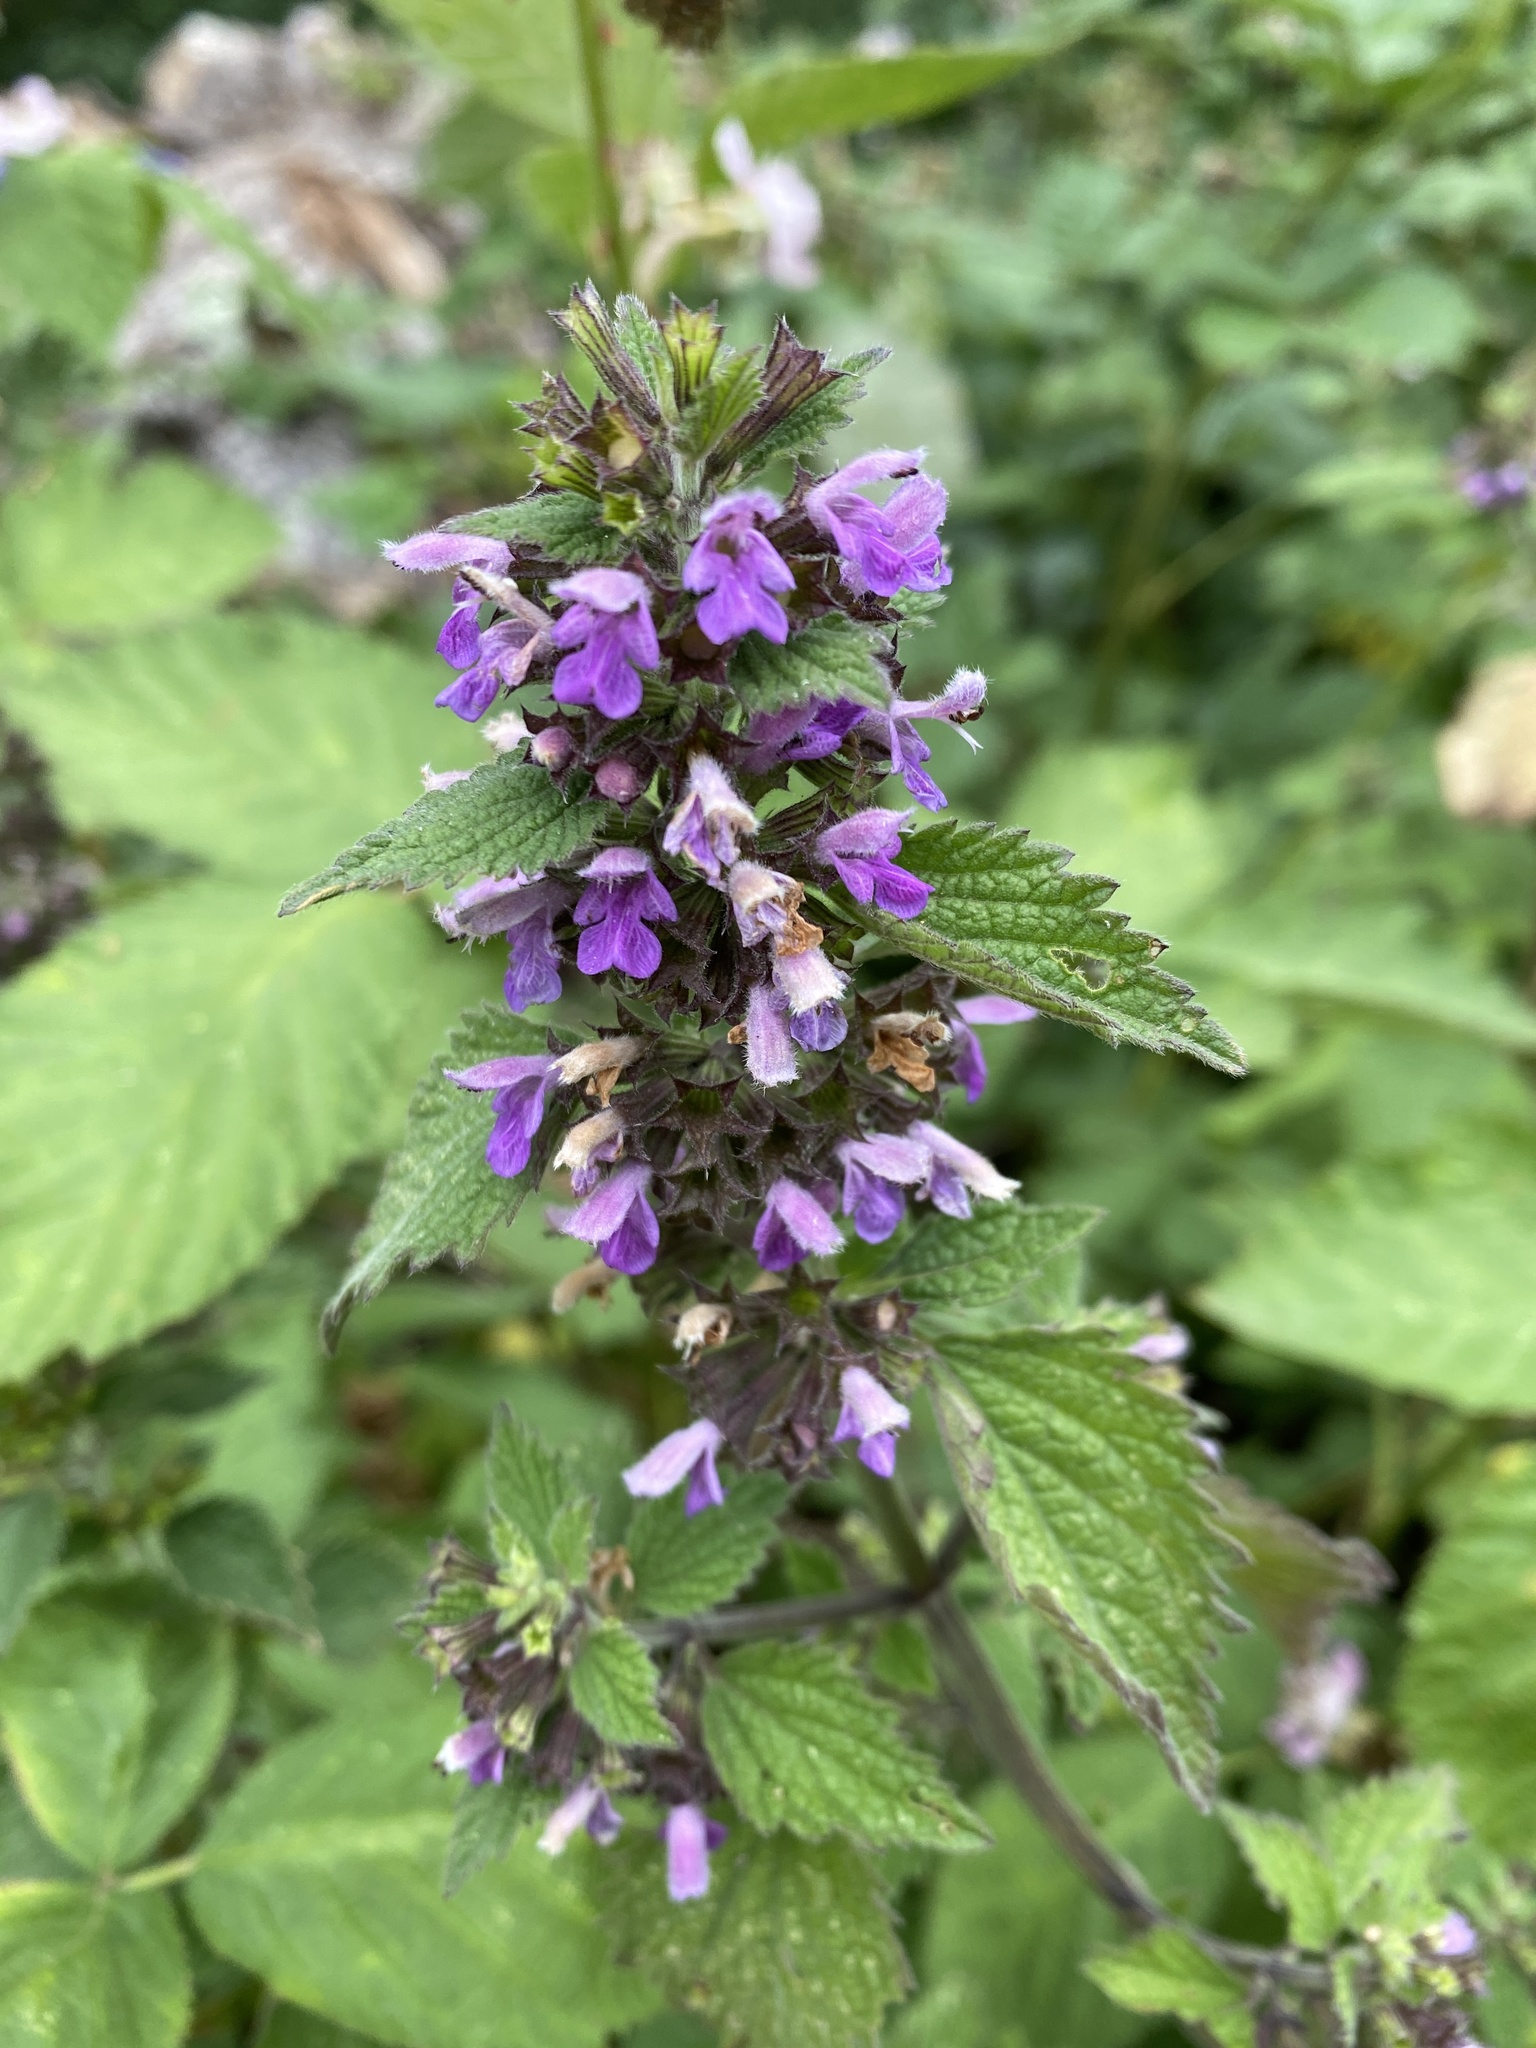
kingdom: Plantae
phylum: Tracheophyta
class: Magnoliopsida
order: Lamiales
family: Lamiaceae
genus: Ballota
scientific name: Ballota nigra
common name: Black horehound
